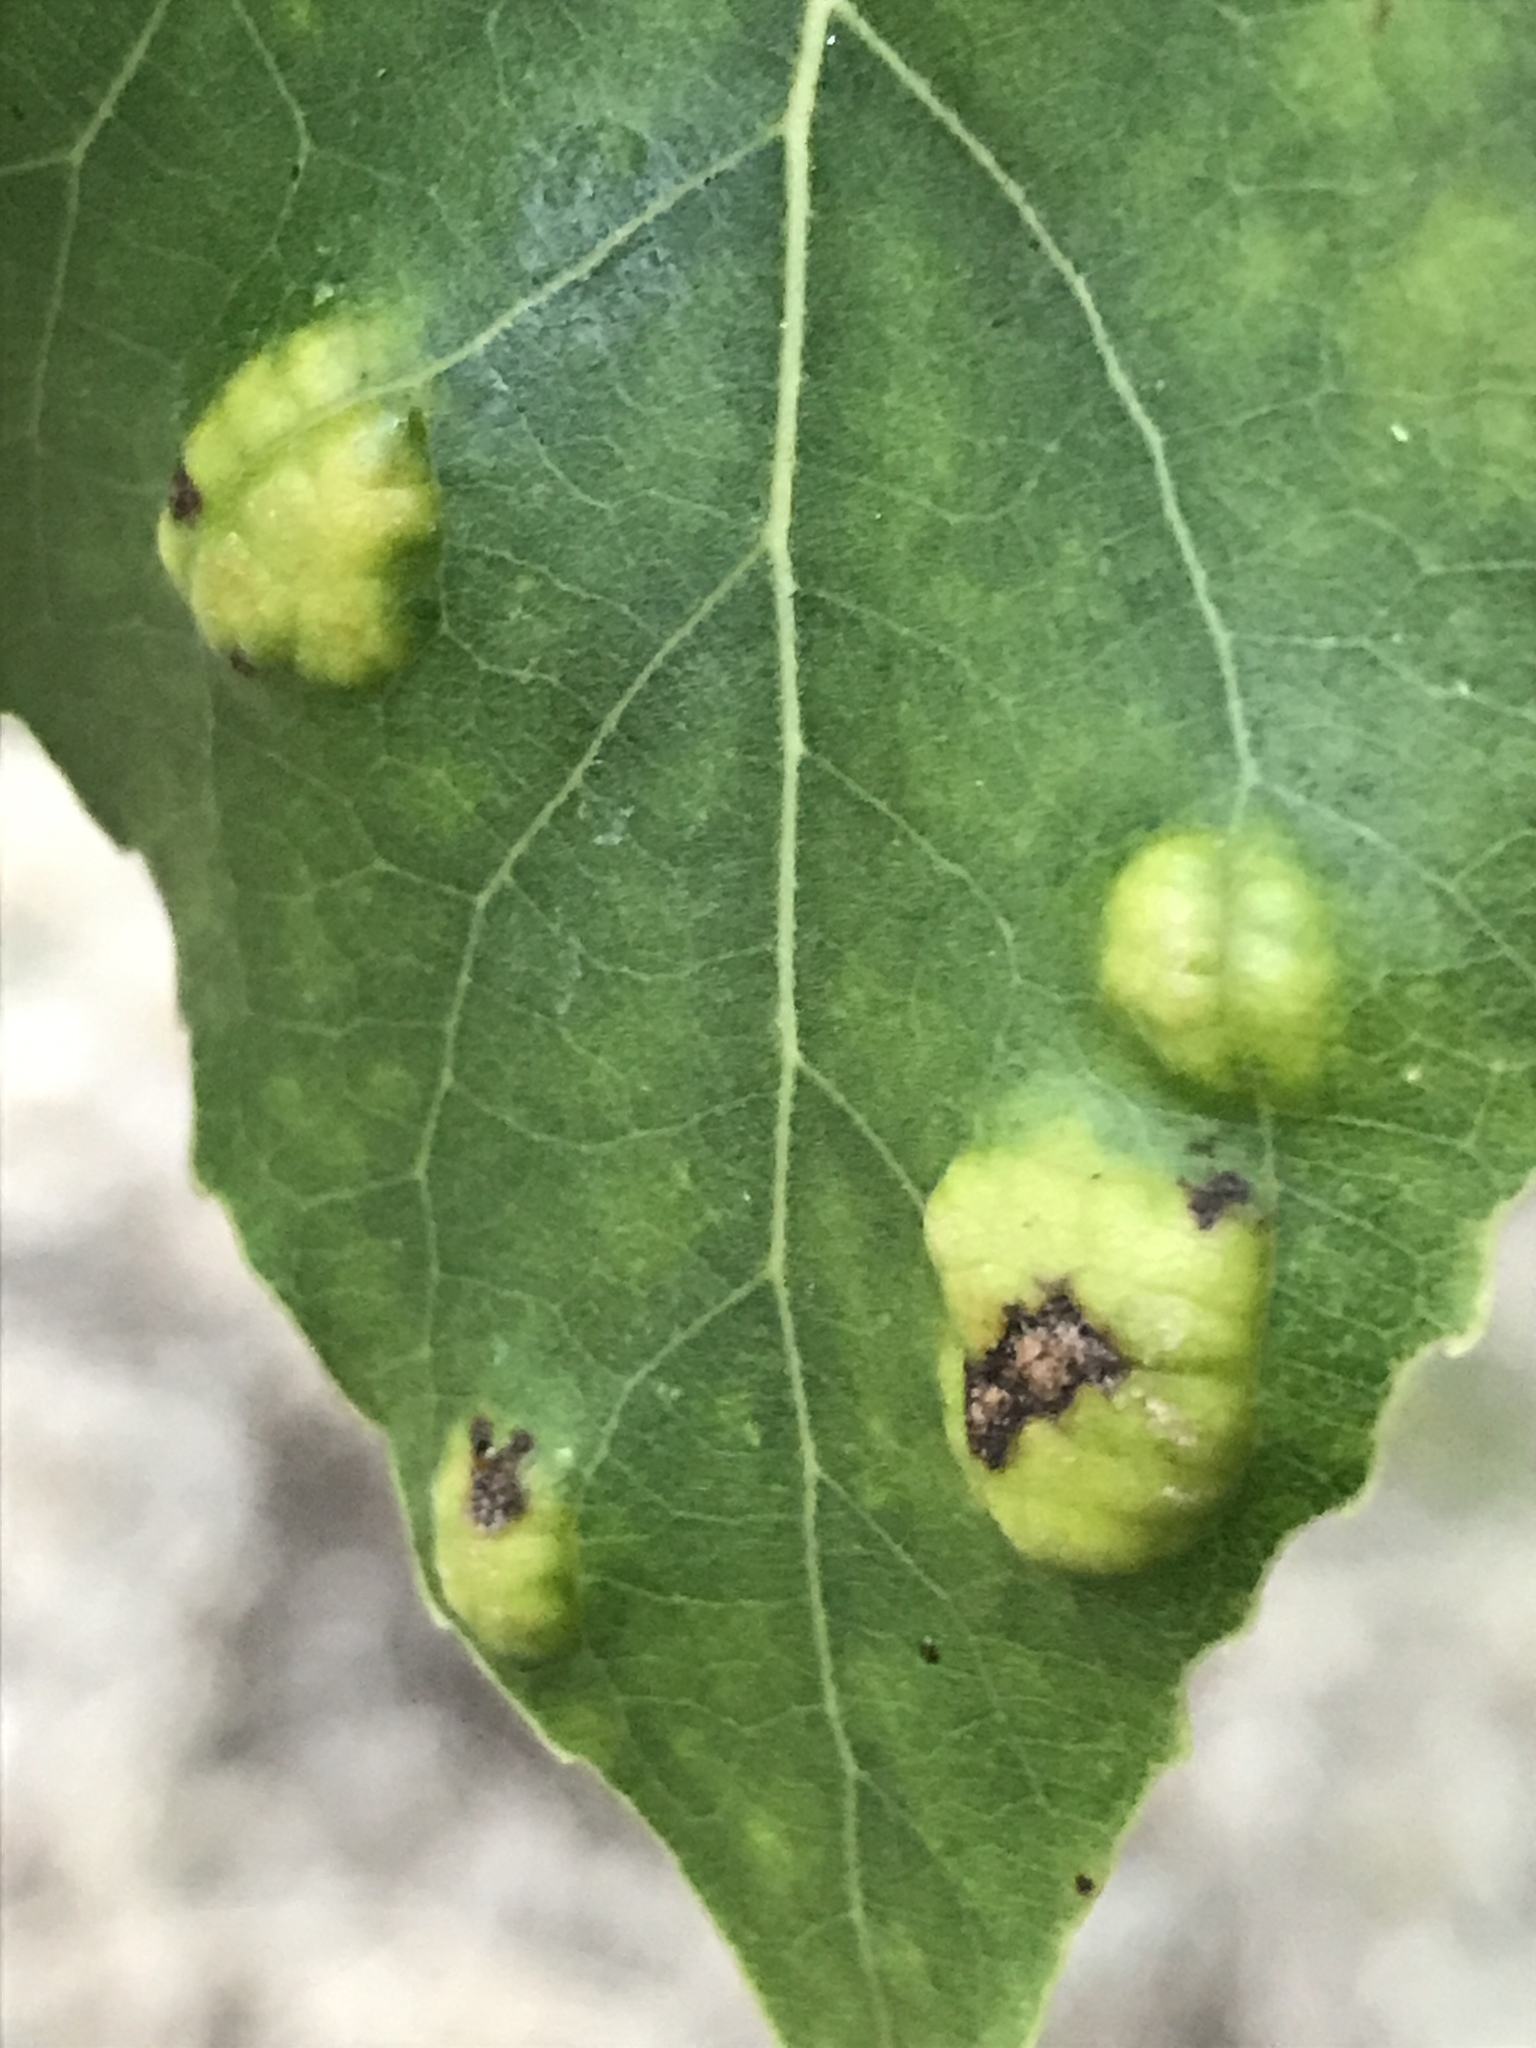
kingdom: Fungi
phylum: Ascomycota
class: Taphrinomycetes
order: Taphrinales
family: Taphrinaceae
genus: Taphrina
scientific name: Taphrina populina
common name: Poplar leaf curl
